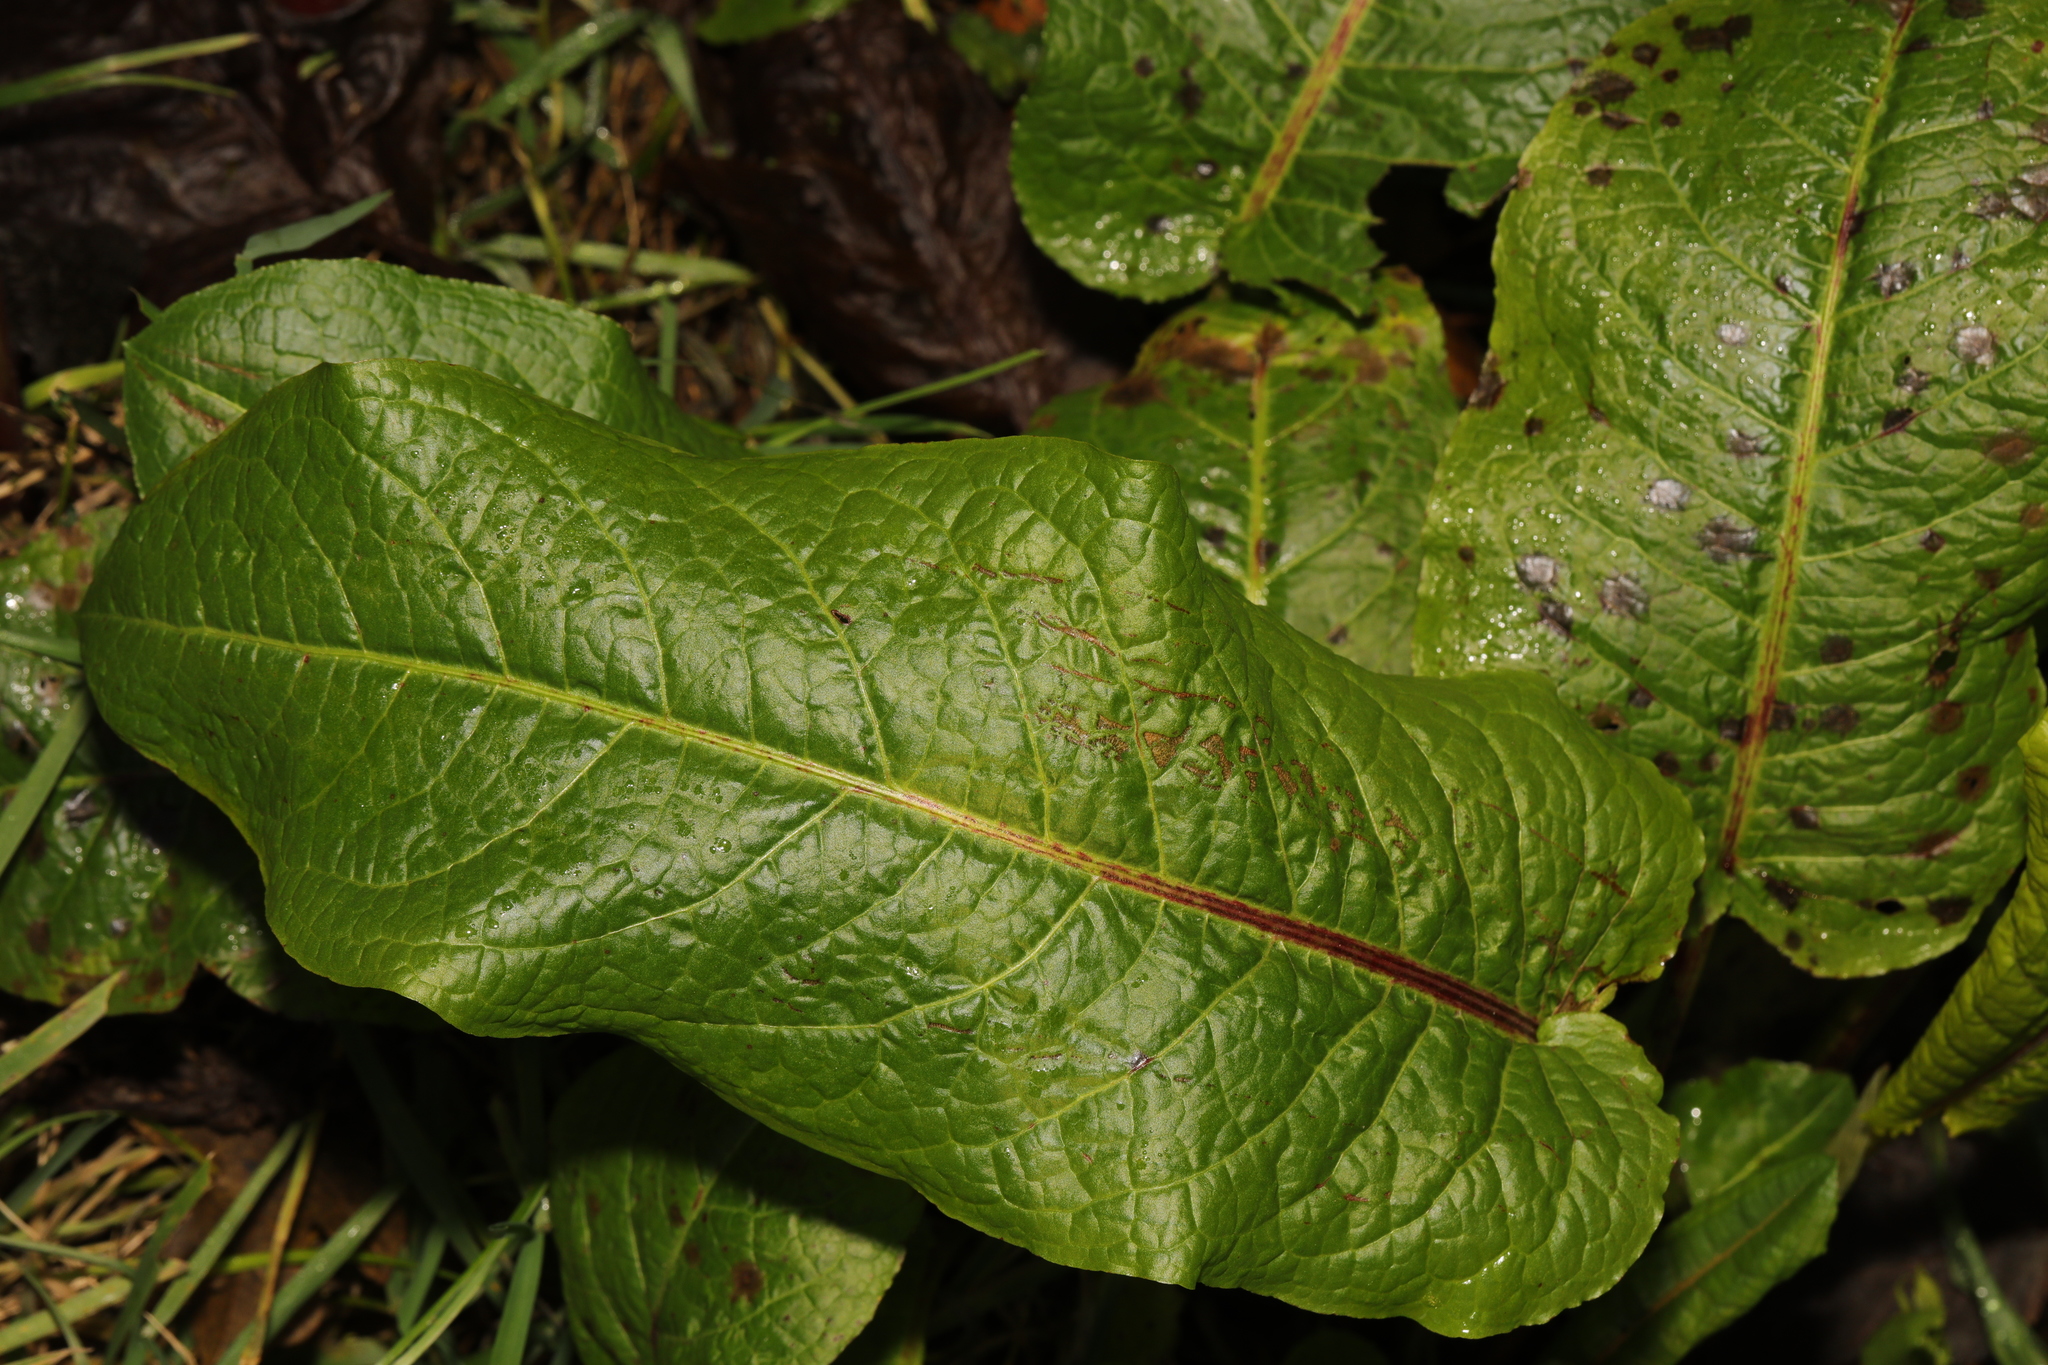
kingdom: Plantae
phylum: Tracheophyta
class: Magnoliopsida
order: Caryophyllales
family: Polygonaceae
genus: Rumex
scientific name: Rumex obtusifolius
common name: Bitter dock
